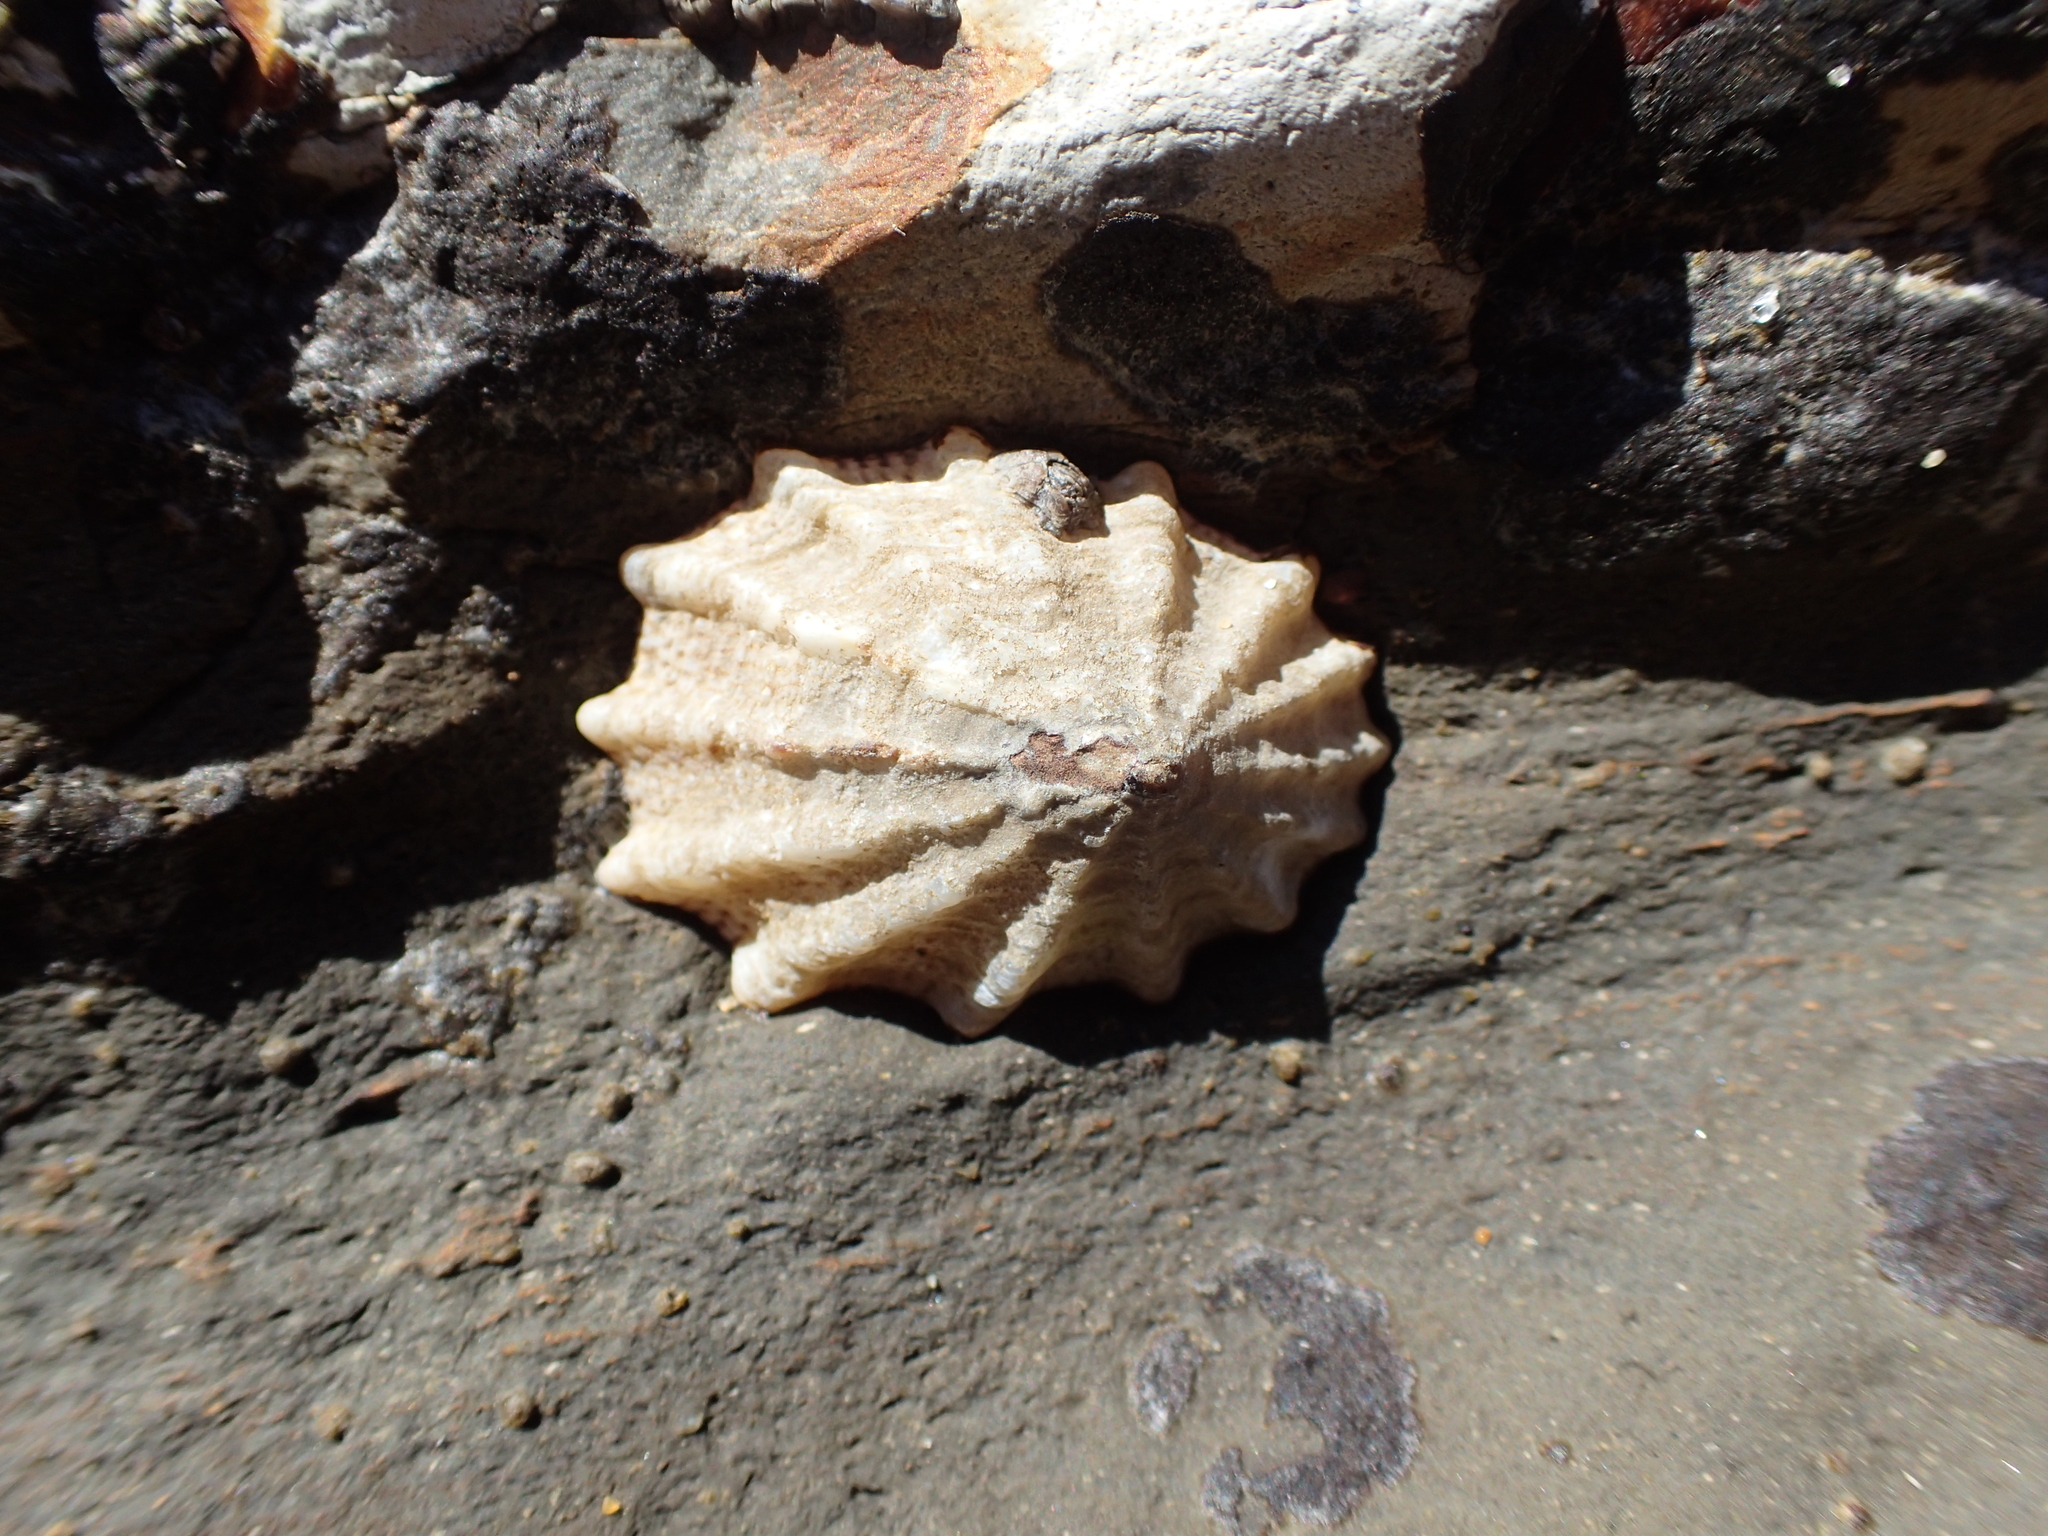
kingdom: Animalia
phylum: Mollusca
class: Gastropoda
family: Lottiidae
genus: Lottia
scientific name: Lottia scabra
